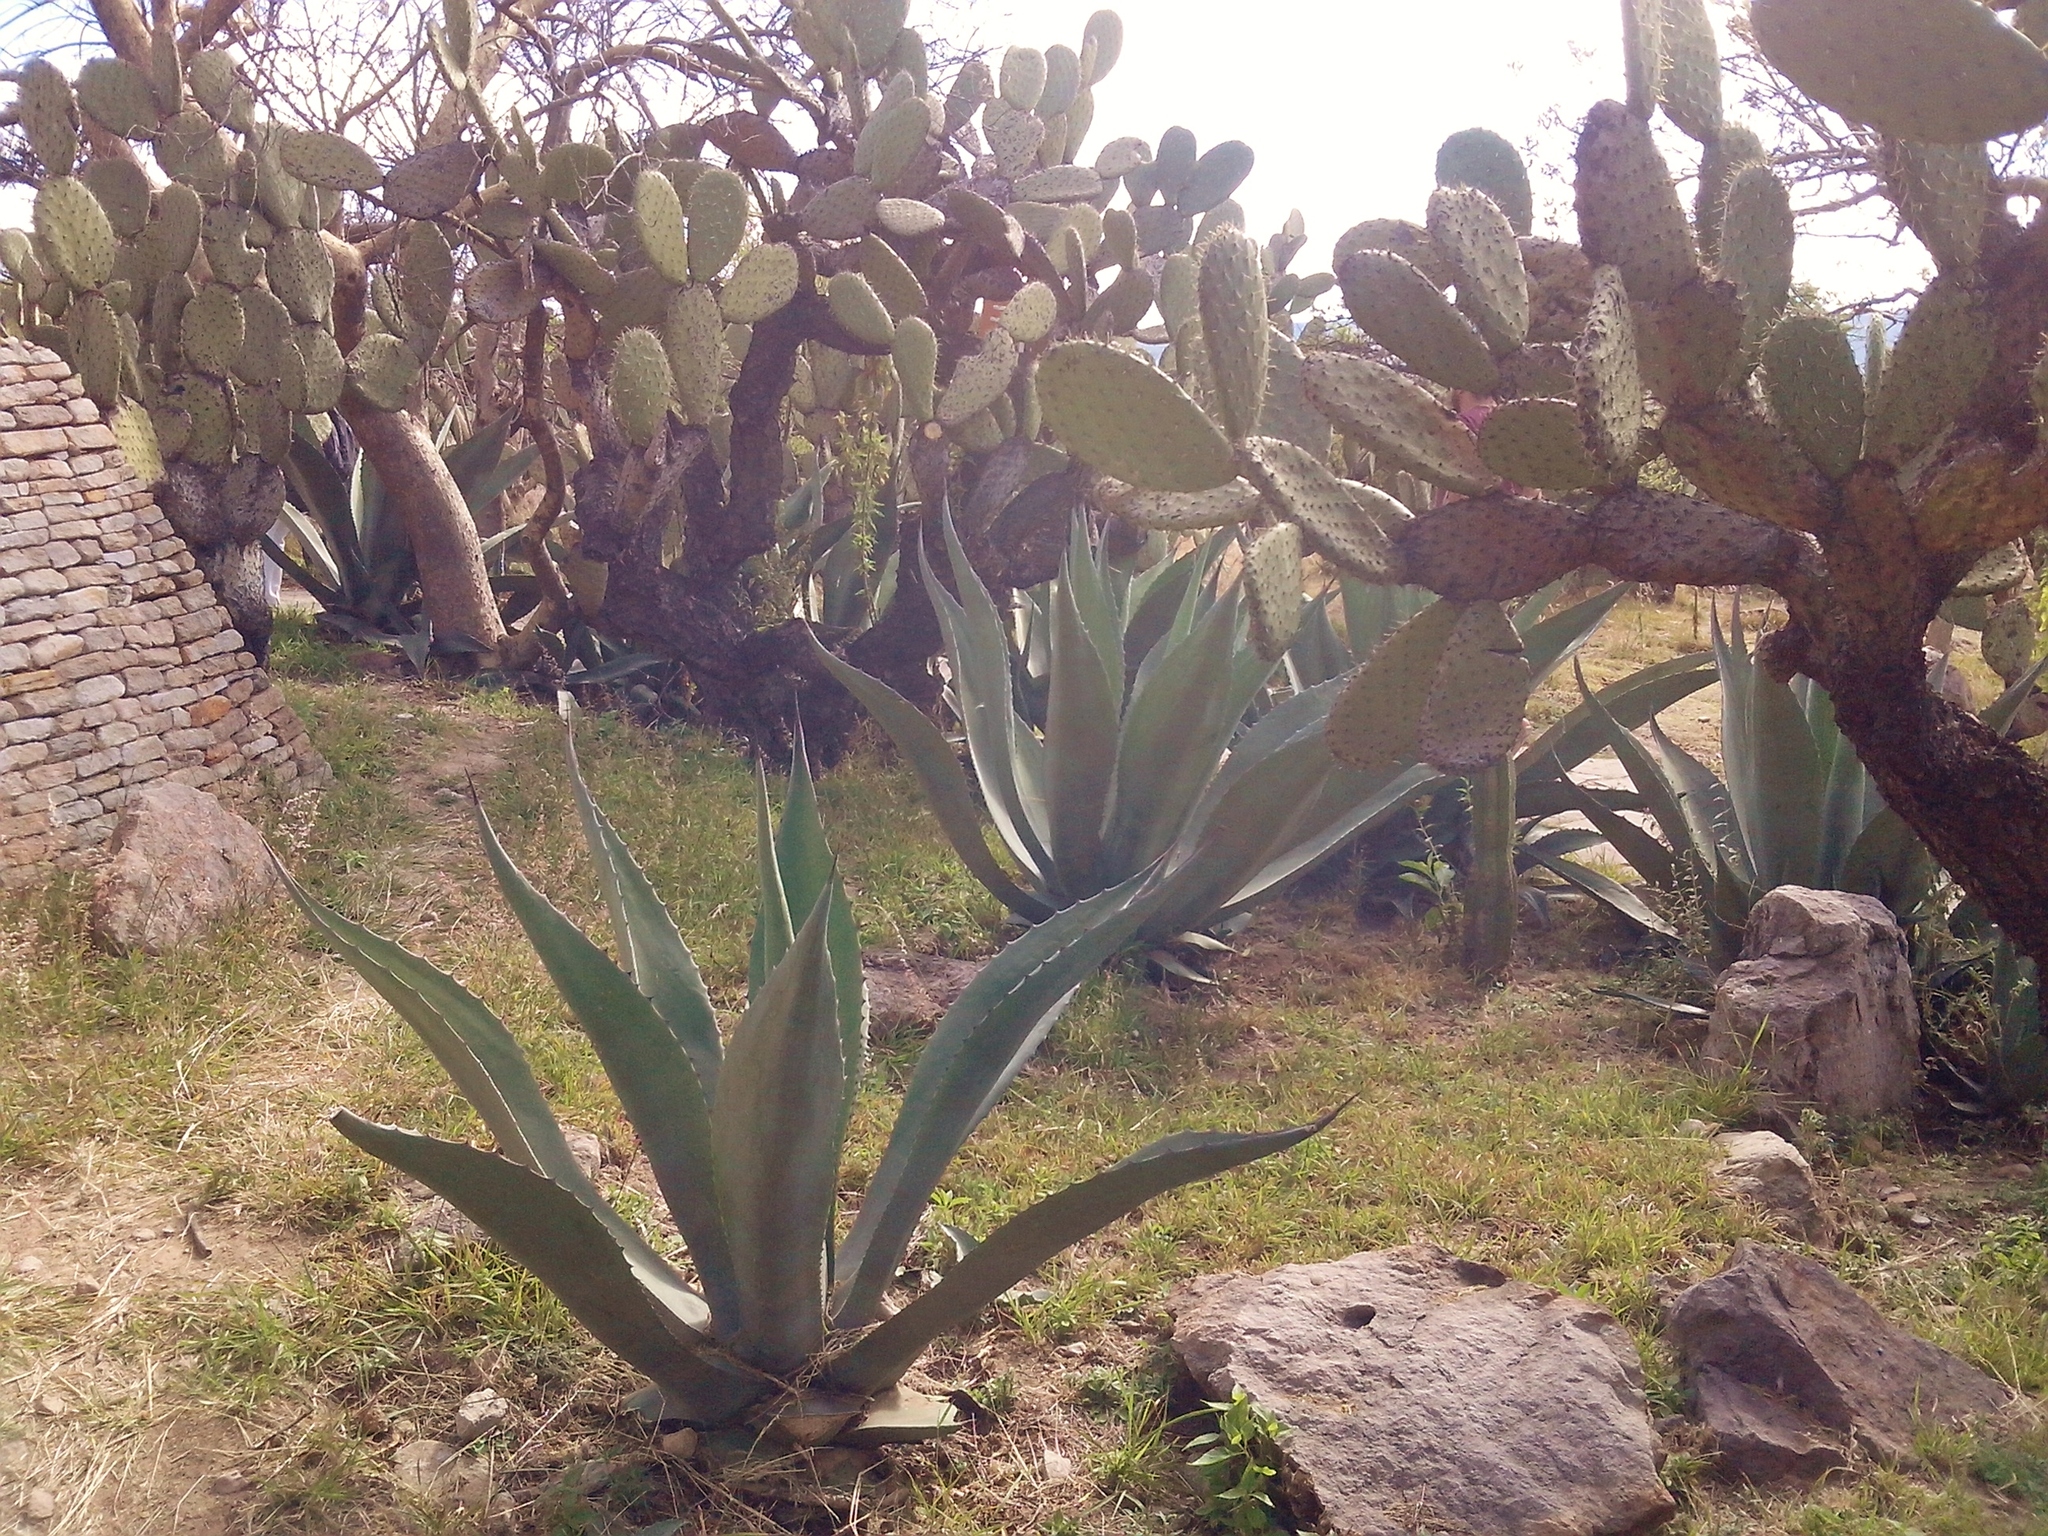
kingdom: Plantae
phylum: Tracheophyta
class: Liliopsida
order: Asparagales
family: Asparagaceae
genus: Agave
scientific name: Agave salmiana
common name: Pulque agave
